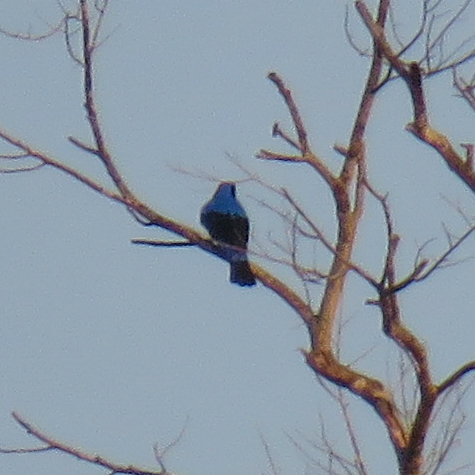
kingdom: Animalia
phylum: Chordata
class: Aves
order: Passeriformes
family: Irenidae
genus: Irena
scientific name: Irena puella
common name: Asian fairy-bluebird
